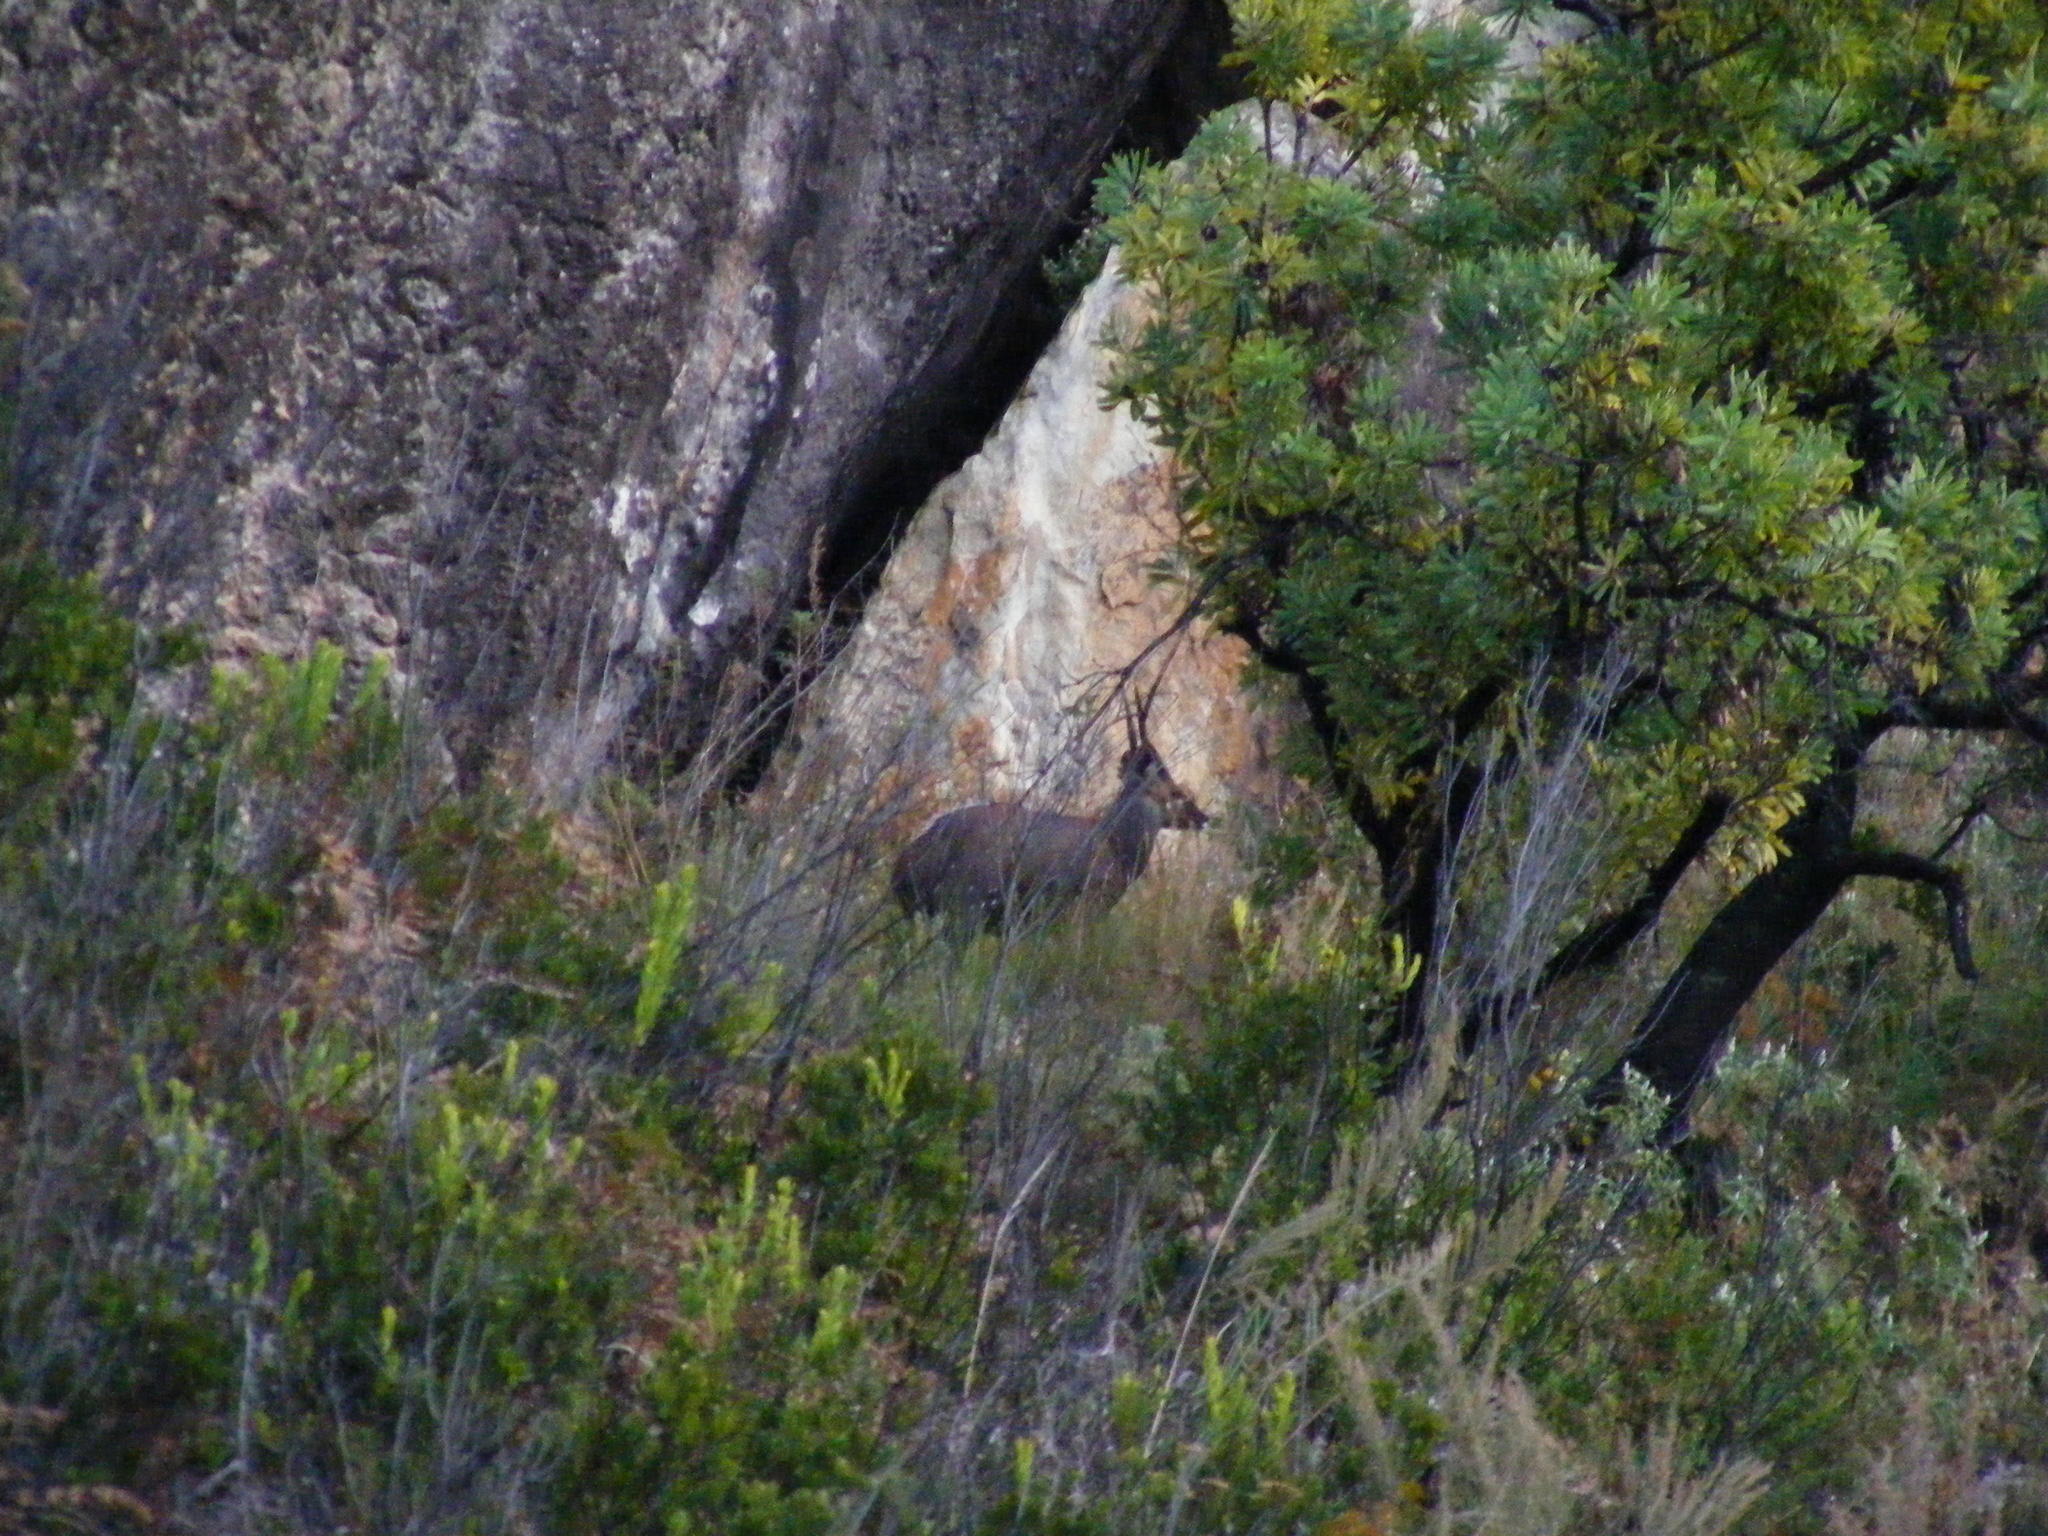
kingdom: Animalia
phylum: Chordata
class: Mammalia
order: Artiodactyla
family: Bovidae
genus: Tragelaphus
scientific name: Tragelaphus scriptus
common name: Bushbuck
